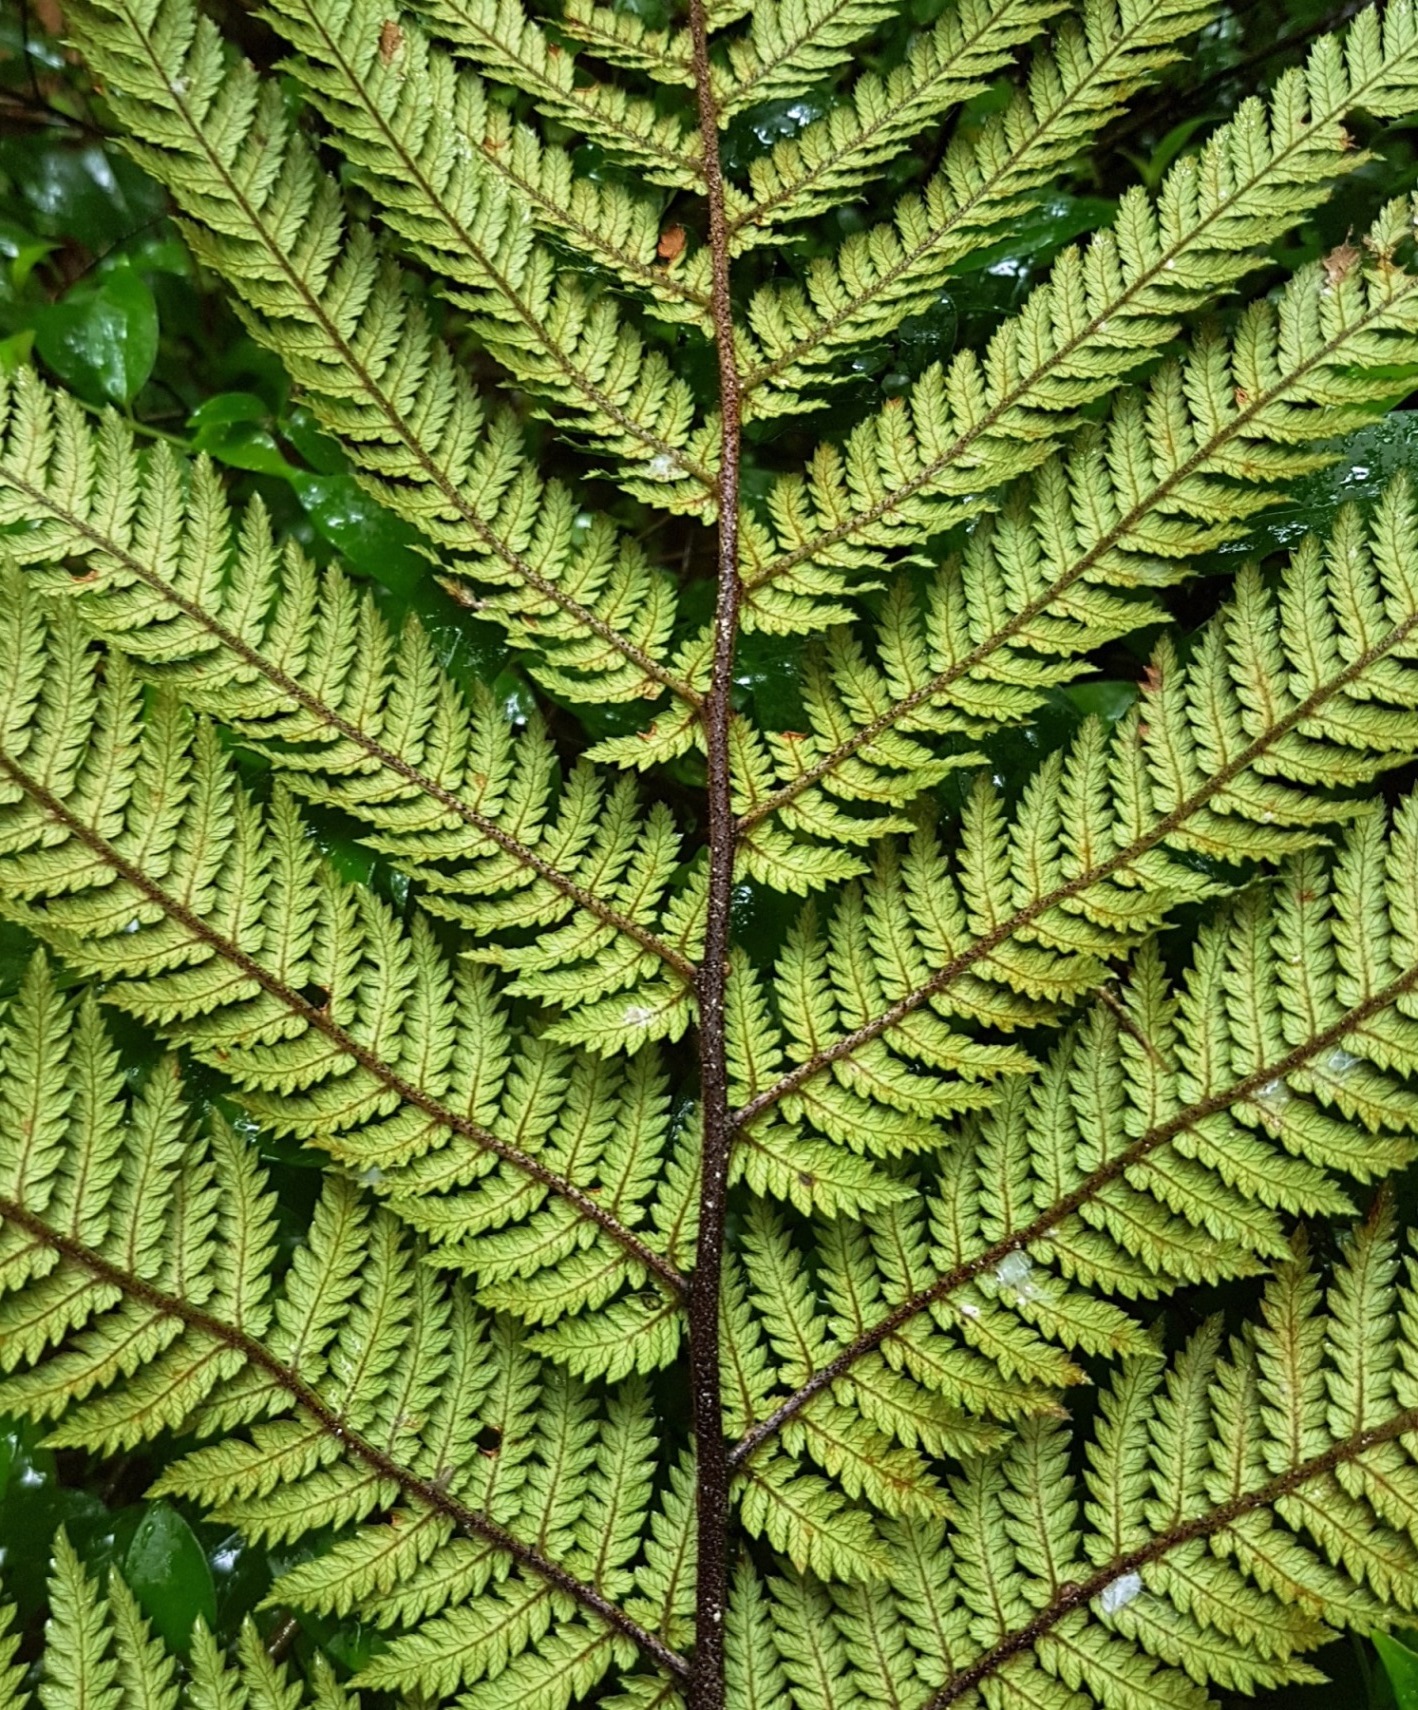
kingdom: Plantae
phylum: Tracheophyta
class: Polypodiopsida
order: Cyatheales
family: Dicksoniaceae
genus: Dicksonia
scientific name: Dicksonia squarrosa
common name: Hard treefern
